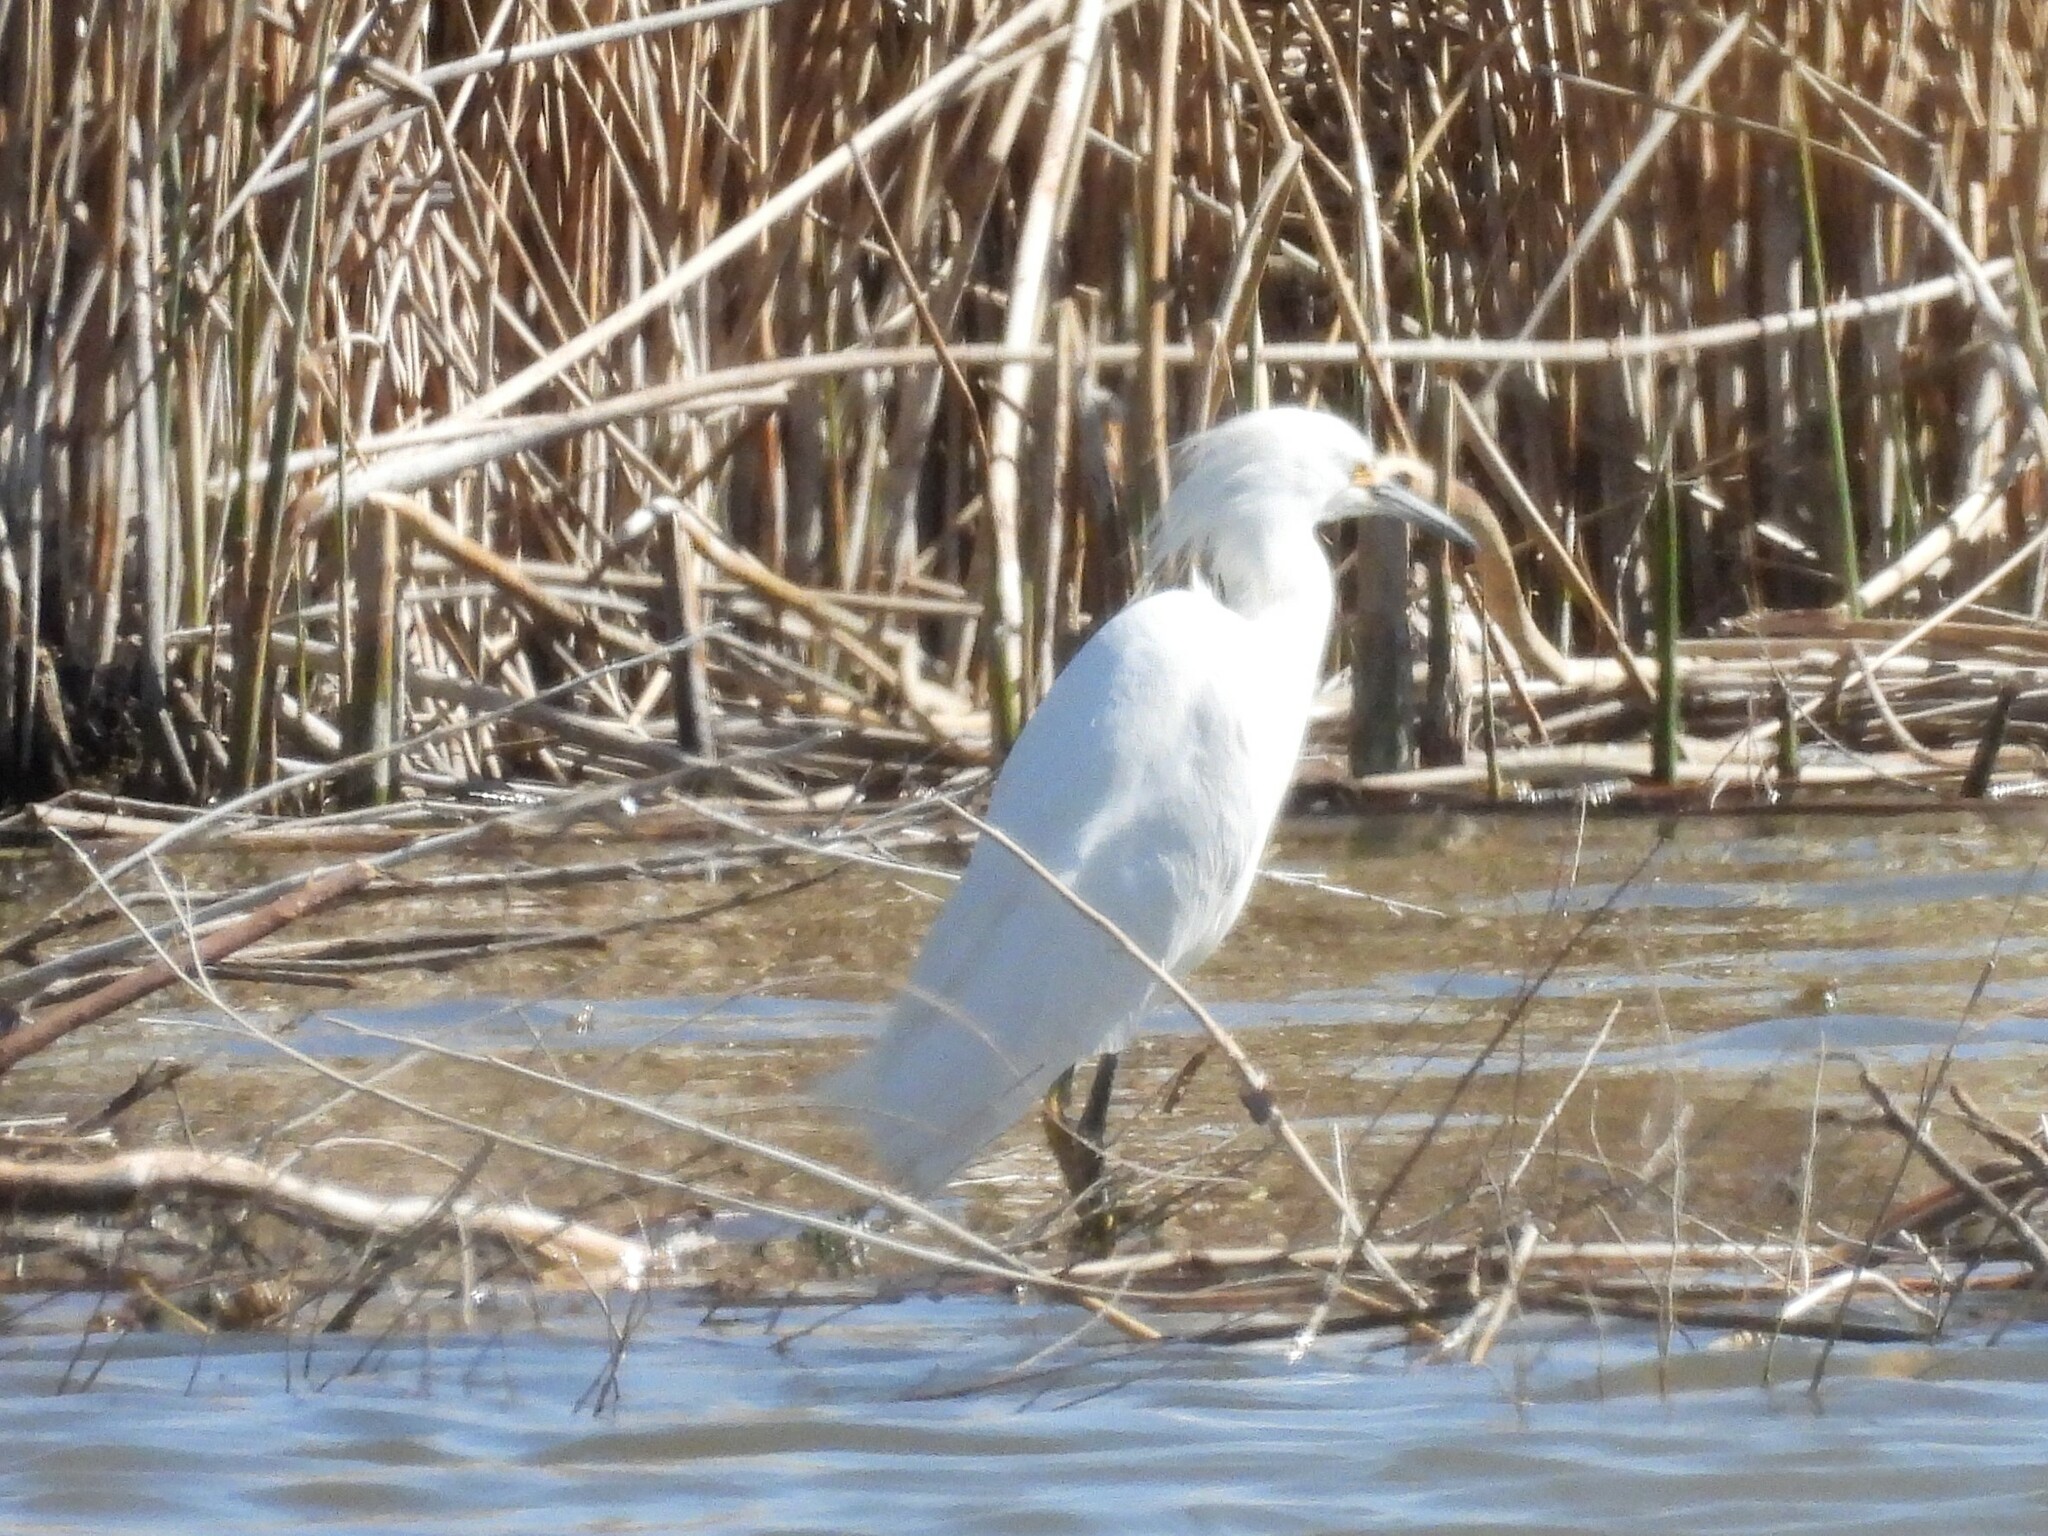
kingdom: Animalia
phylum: Chordata
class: Aves
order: Pelecaniformes
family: Ardeidae
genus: Egretta
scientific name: Egretta thula
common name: Snowy egret
